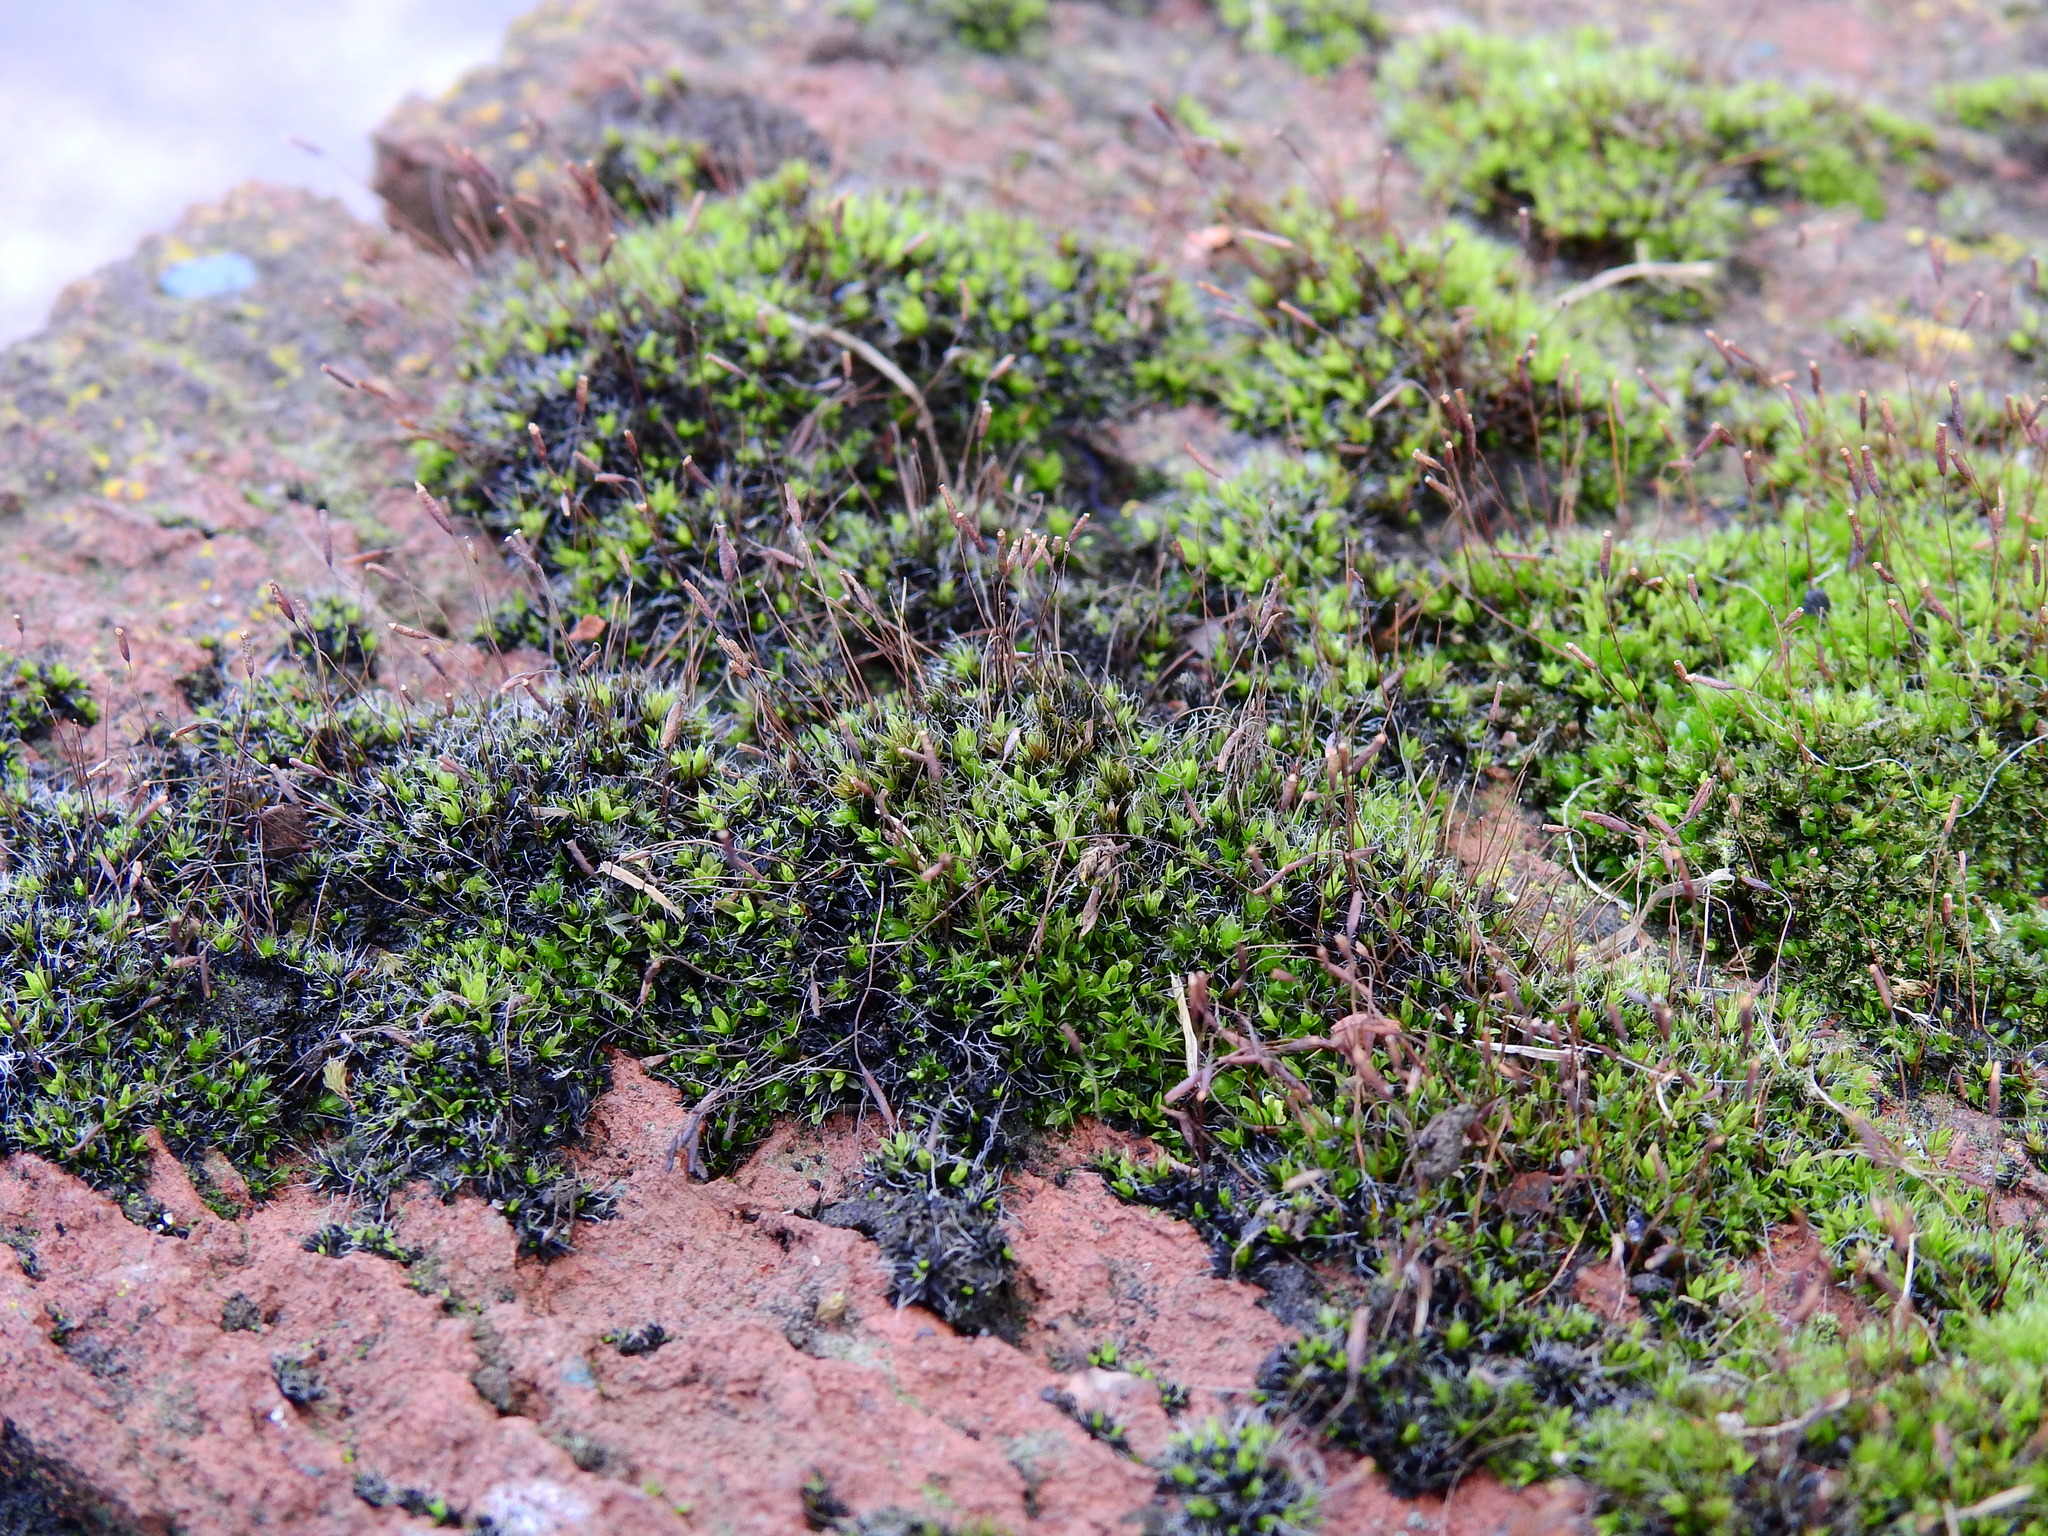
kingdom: Plantae
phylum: Bryophyta
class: Bryopsida
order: Pottiales
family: Pottiaceae
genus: Tortula
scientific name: Tortula muralis
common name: Wall screw-moss
